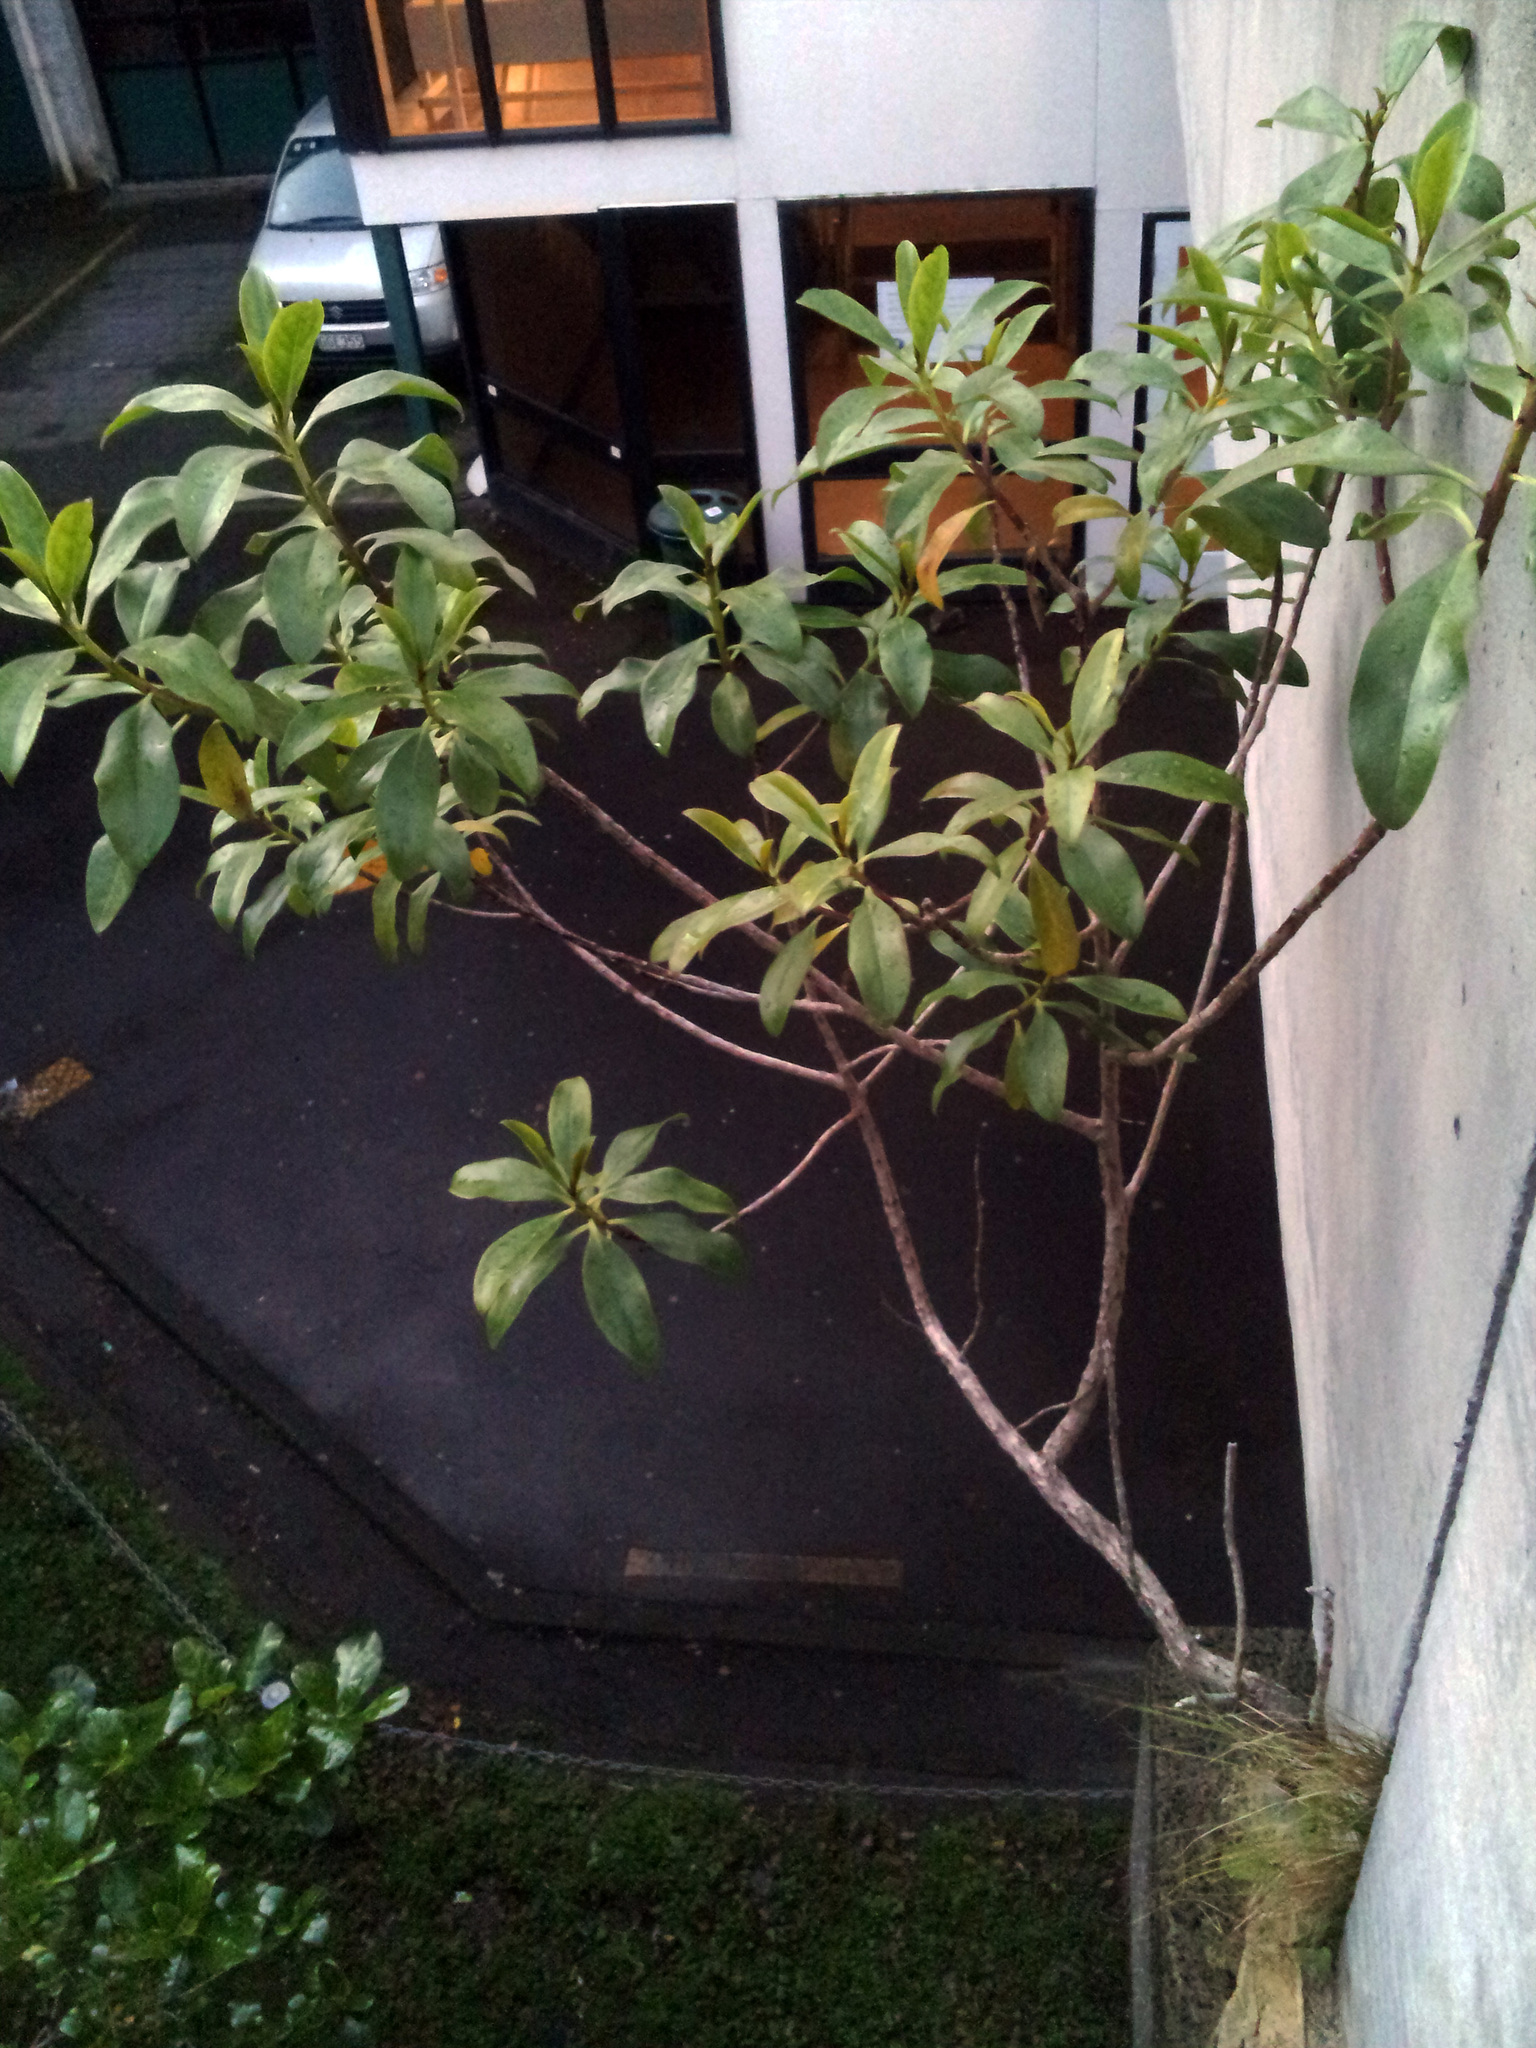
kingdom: Plantae
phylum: Tracheophyta
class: Magnoliopsida
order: Lamiales
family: Scrophulariaceae
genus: Myoporum
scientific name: Myoporum
